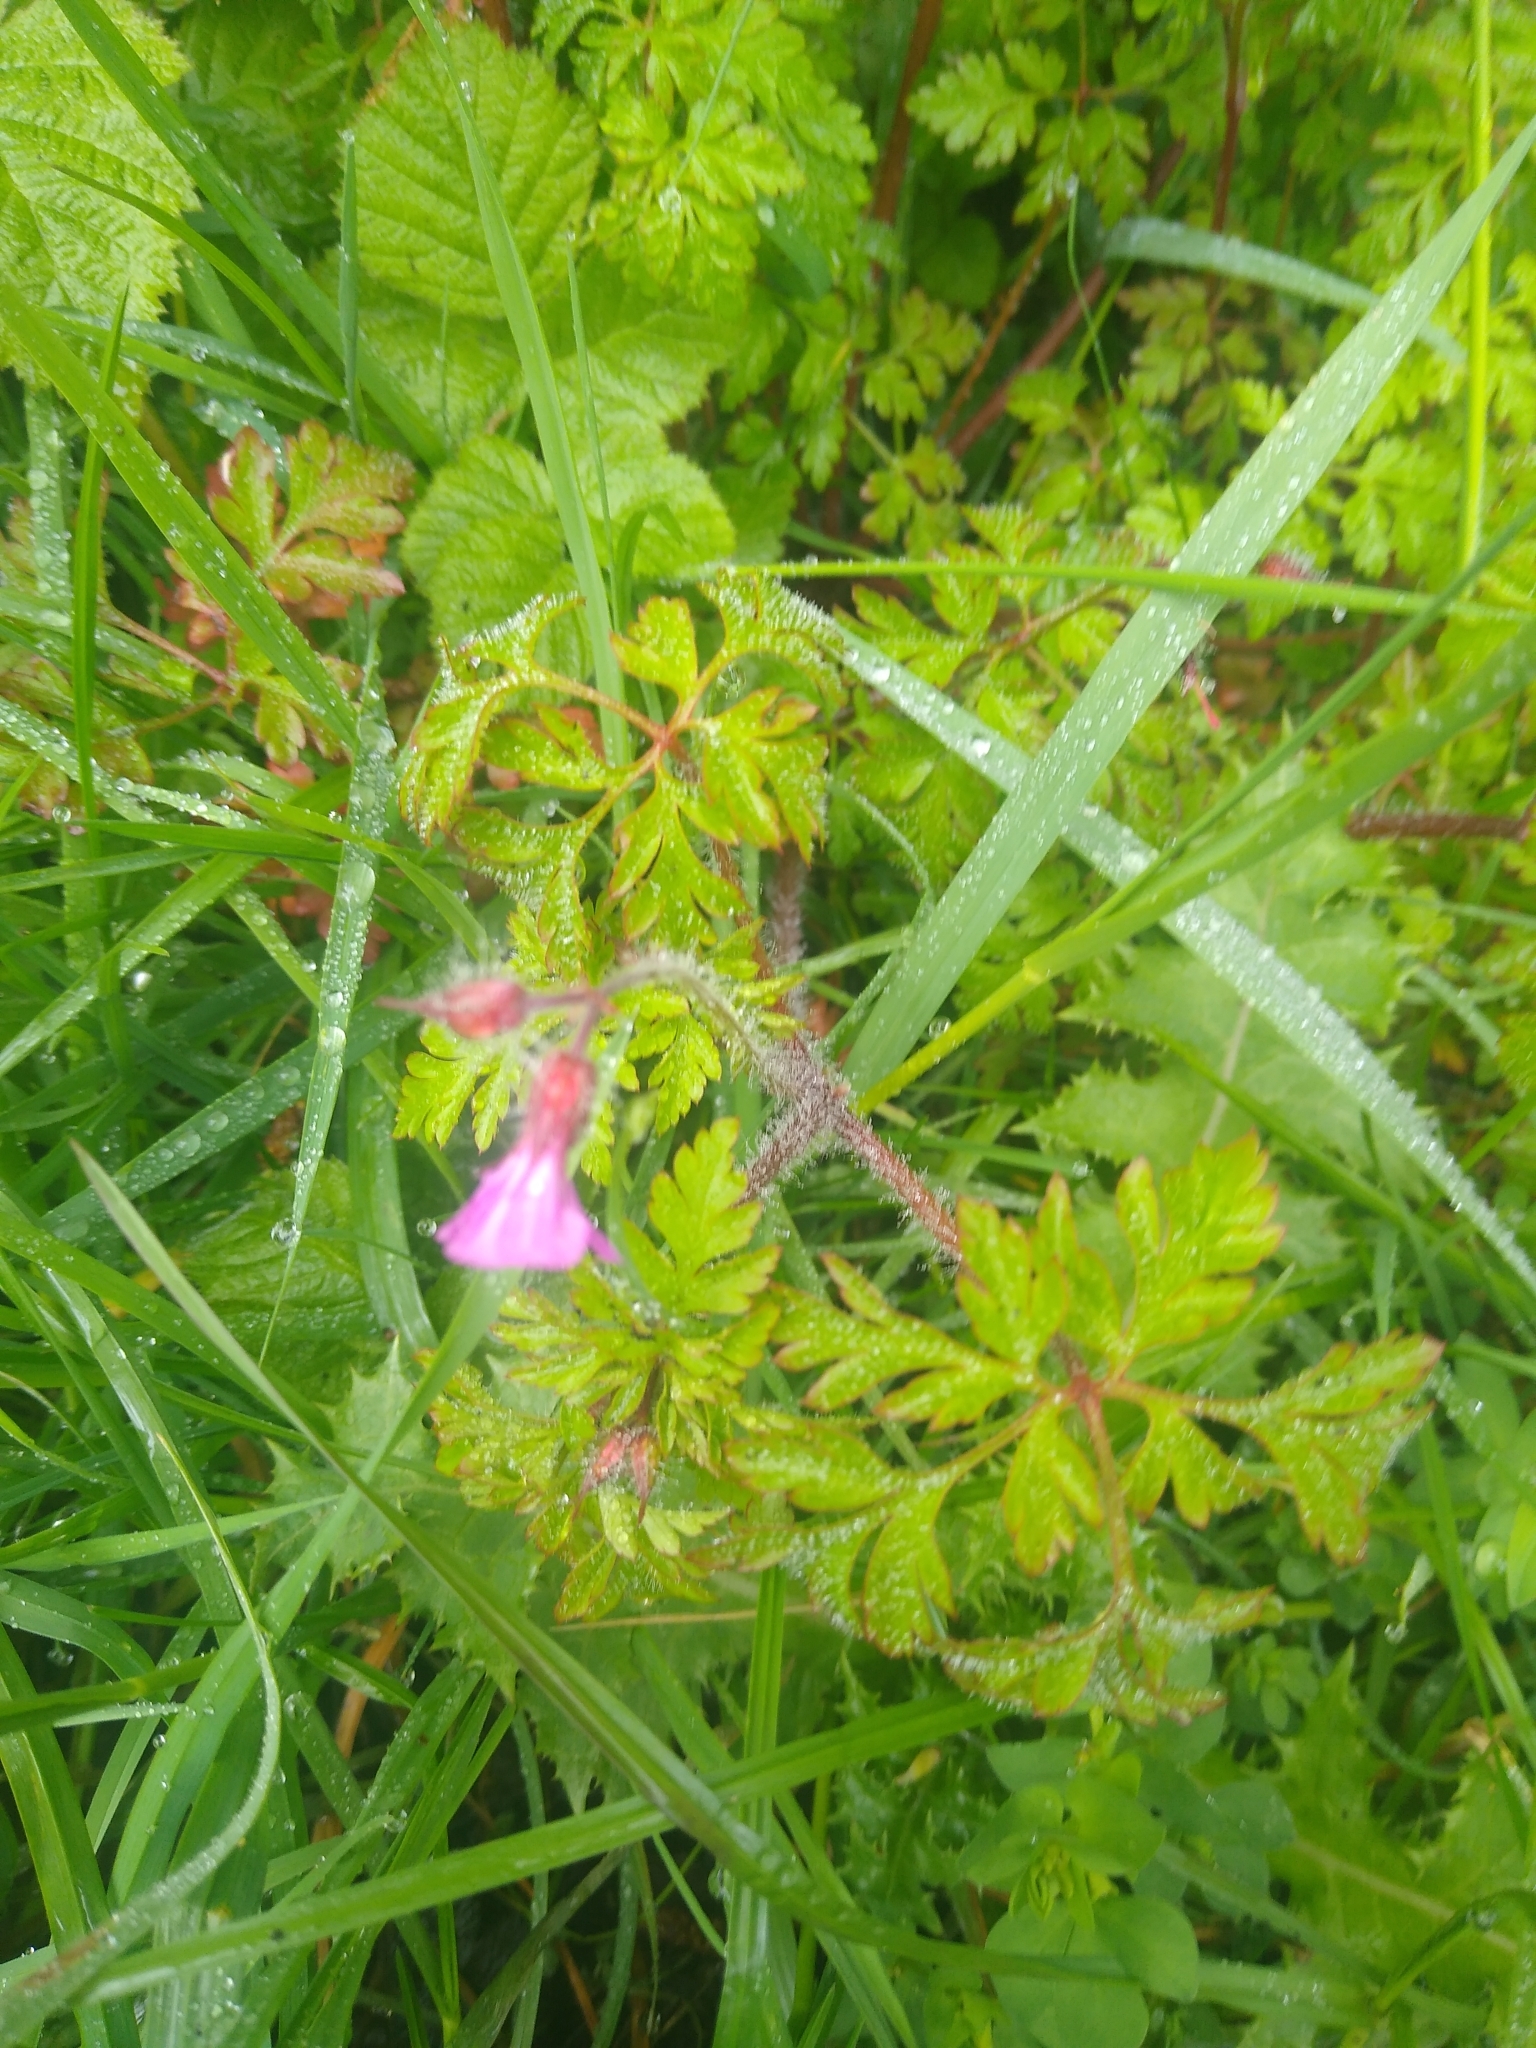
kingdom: Plantae
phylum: Tracheophyta
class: Magnoliopsida
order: Geraniales
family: Geraniaceae
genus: Geranium
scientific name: Geranium robertianum
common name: Herb-robert
